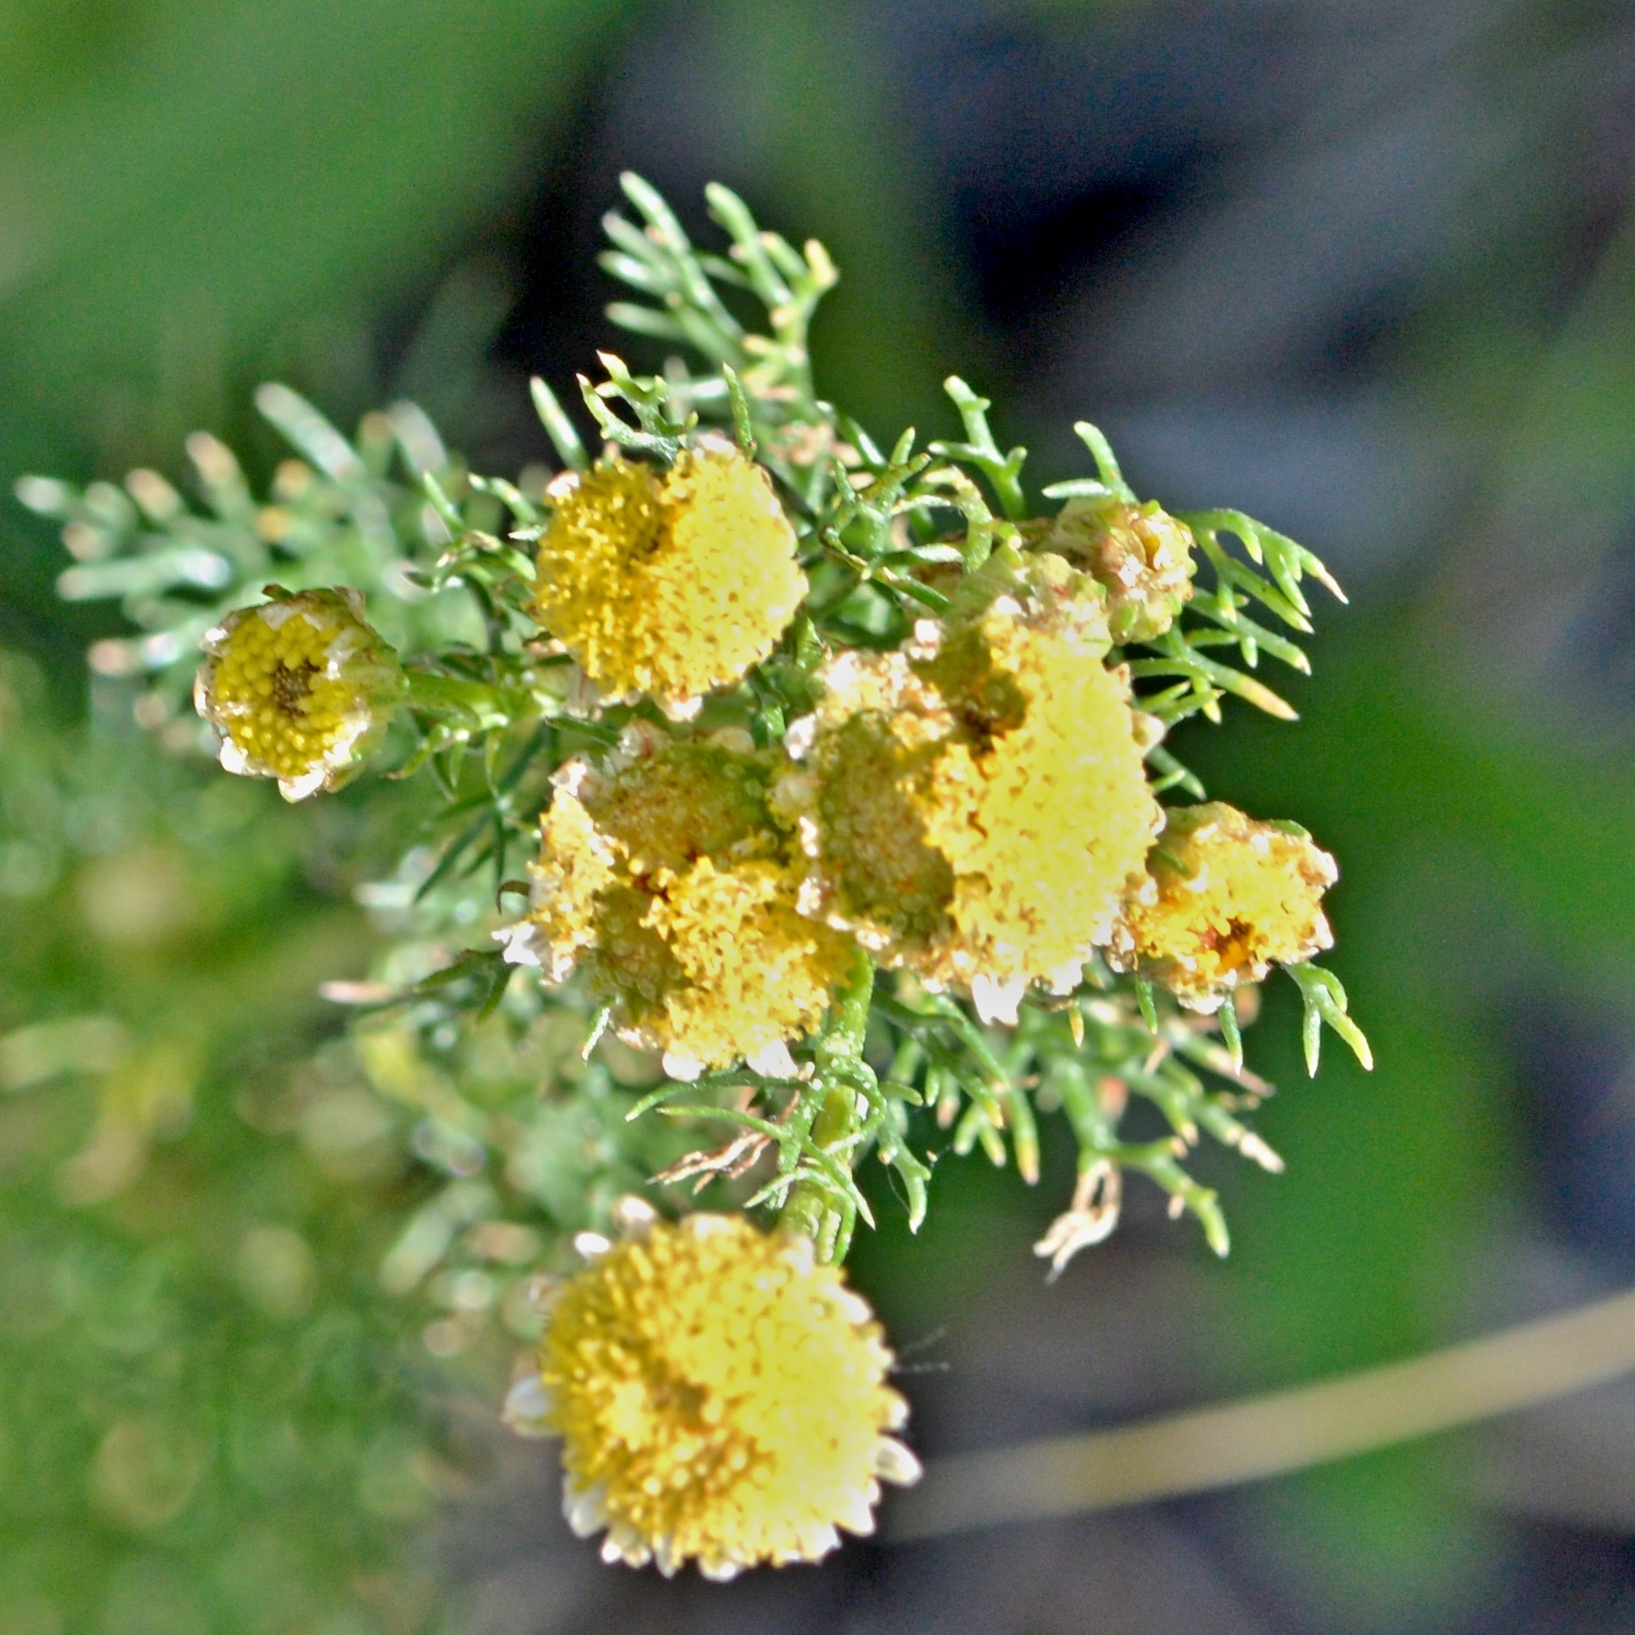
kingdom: Plantae
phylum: Tracheophyta
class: Magnoliopsida
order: Asterales
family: Asteraceae
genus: Matricaria
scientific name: Matricaria discoidea
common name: Disc mayweed
